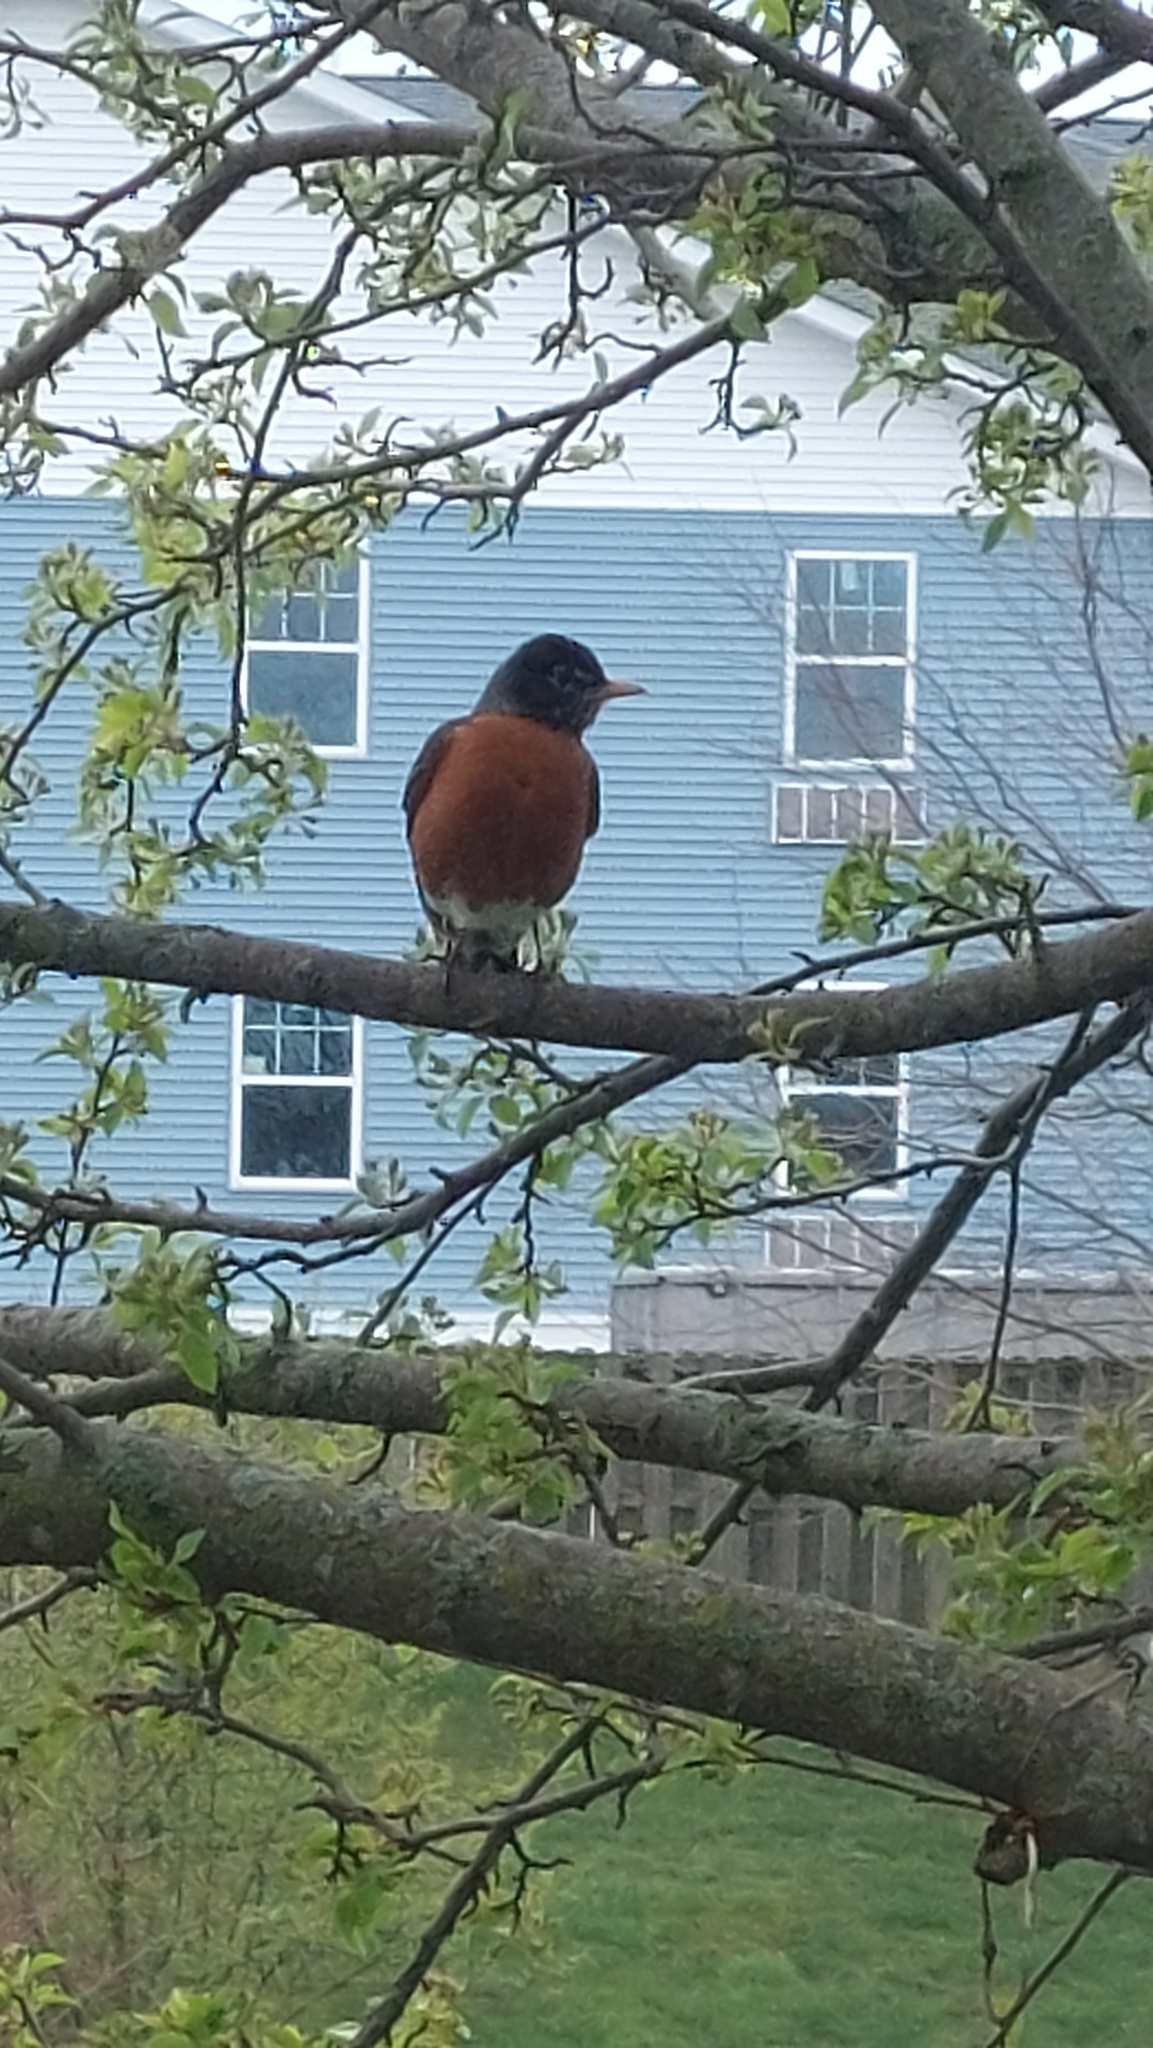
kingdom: Animalia
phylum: Chordata
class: Aves
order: Passeriformes
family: Turdidae
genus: Turdus
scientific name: Turdus migratorius
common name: American robin
